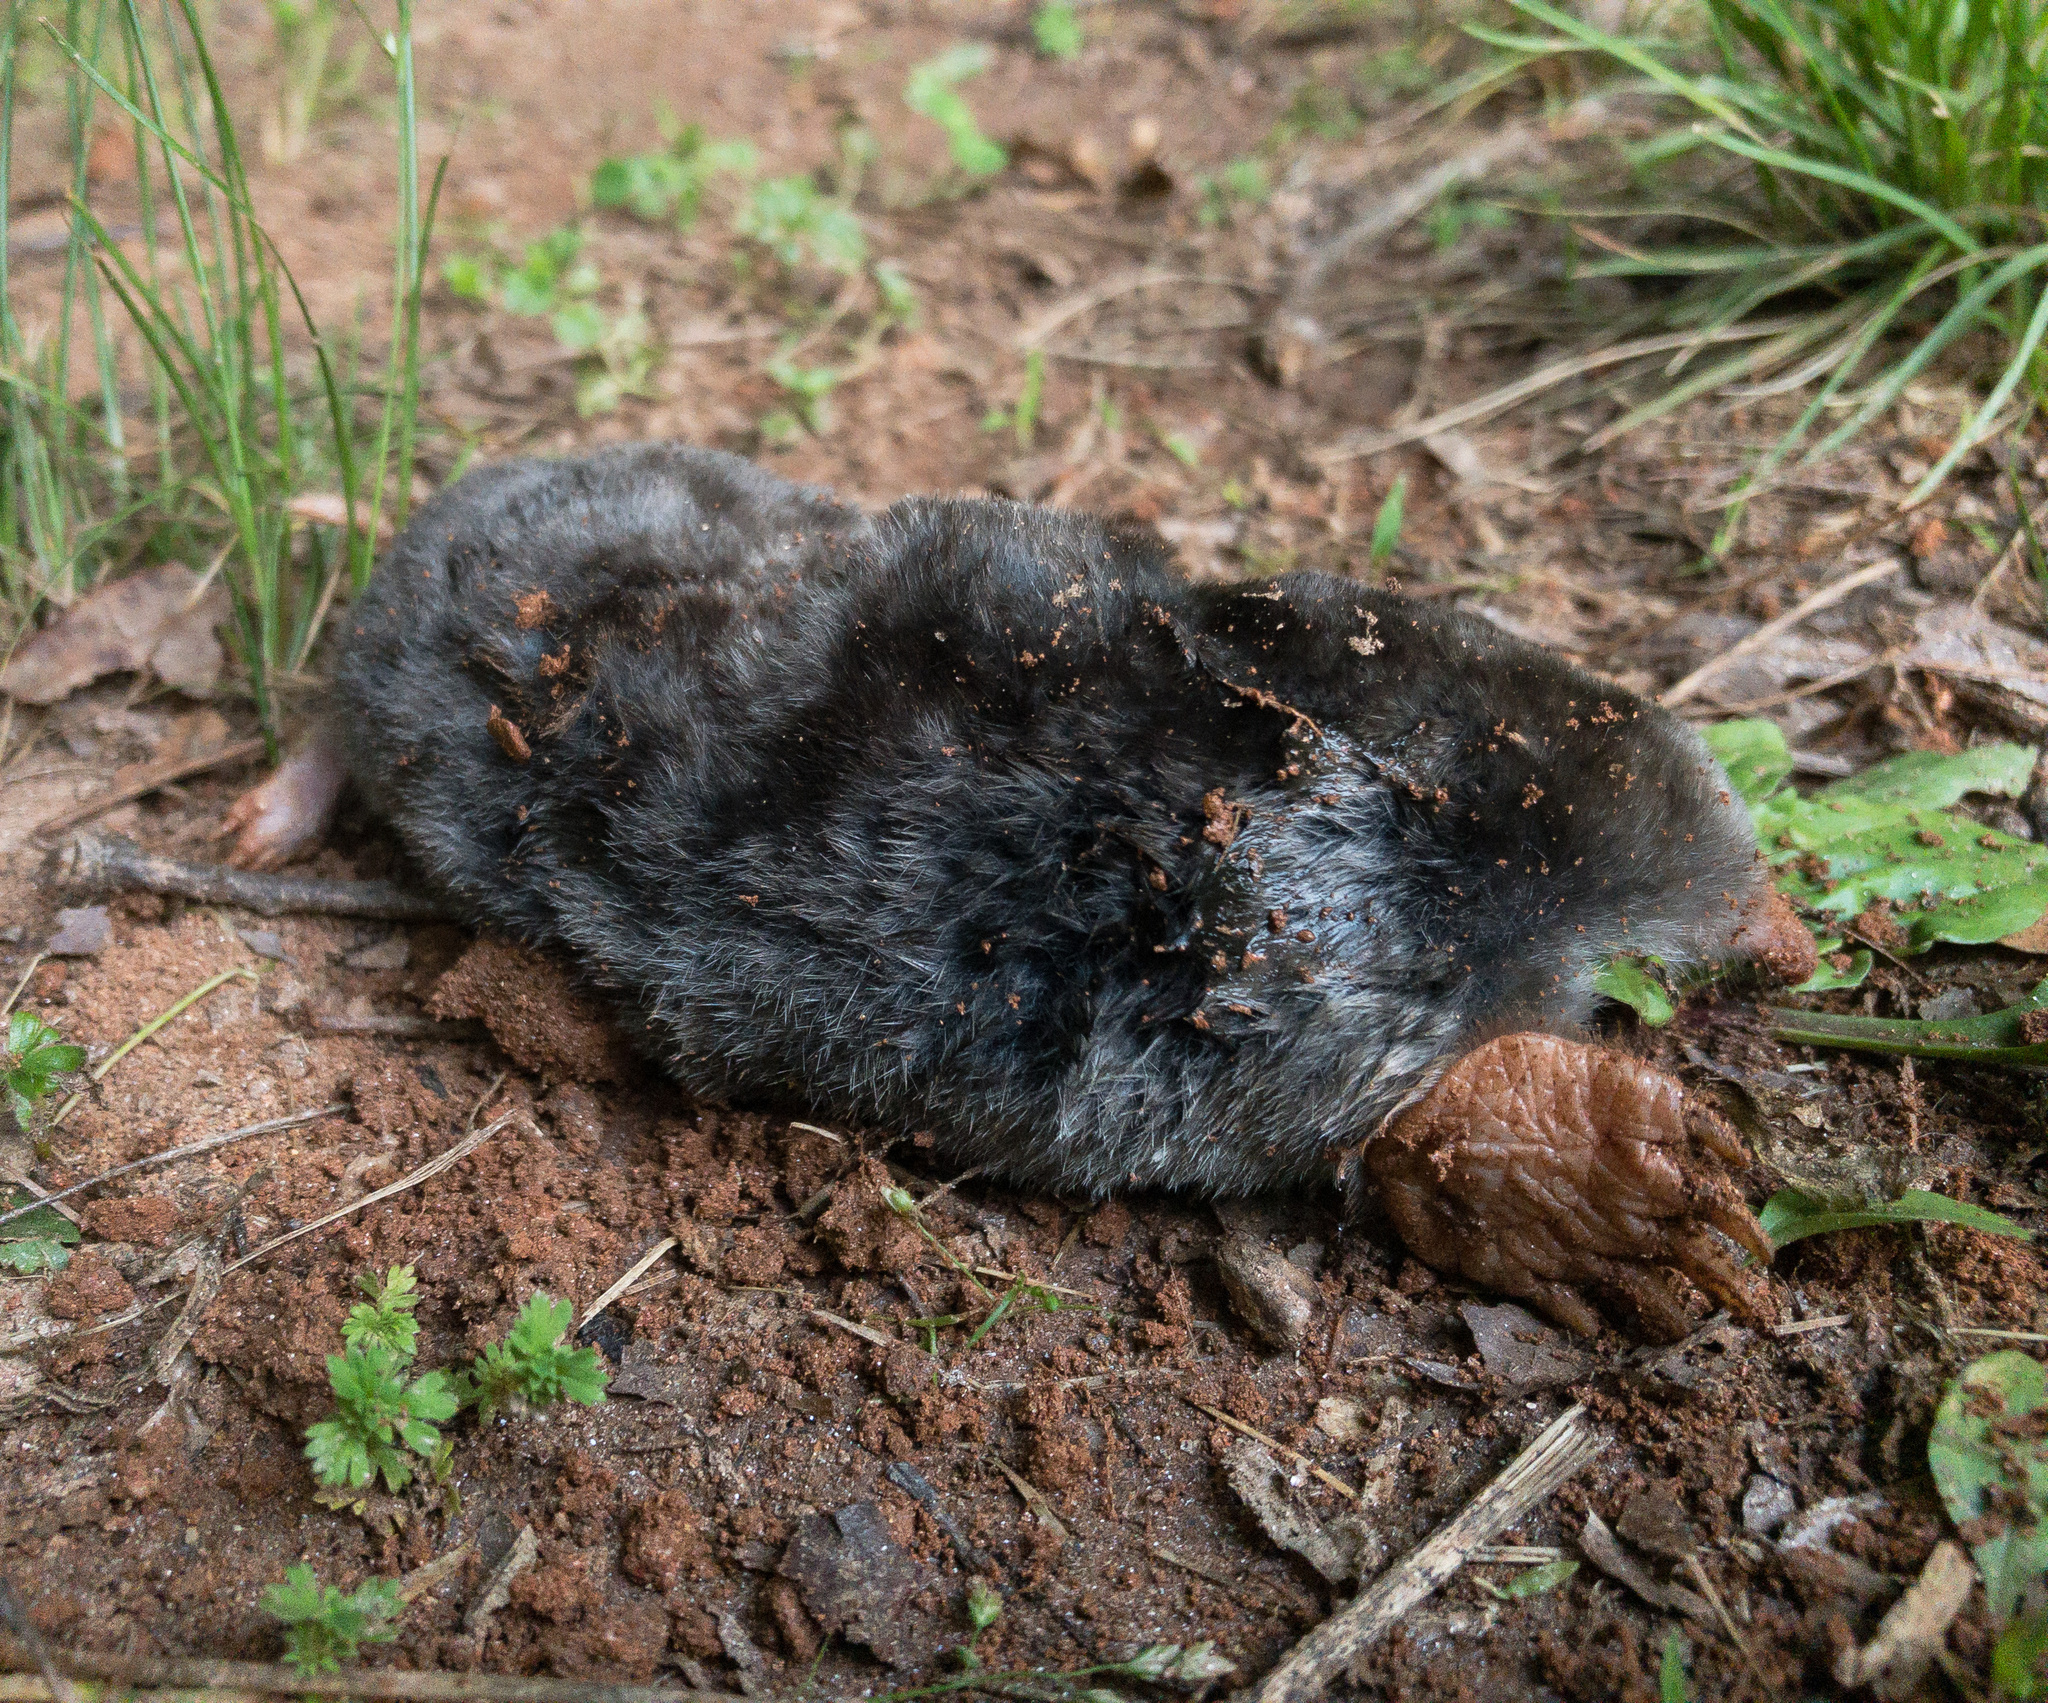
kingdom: Animalia
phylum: Chordata
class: Mammalia
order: Soricomorpha
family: Talpidae
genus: Scalopus
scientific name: Scalopus aquaticus
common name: Eastern mole
